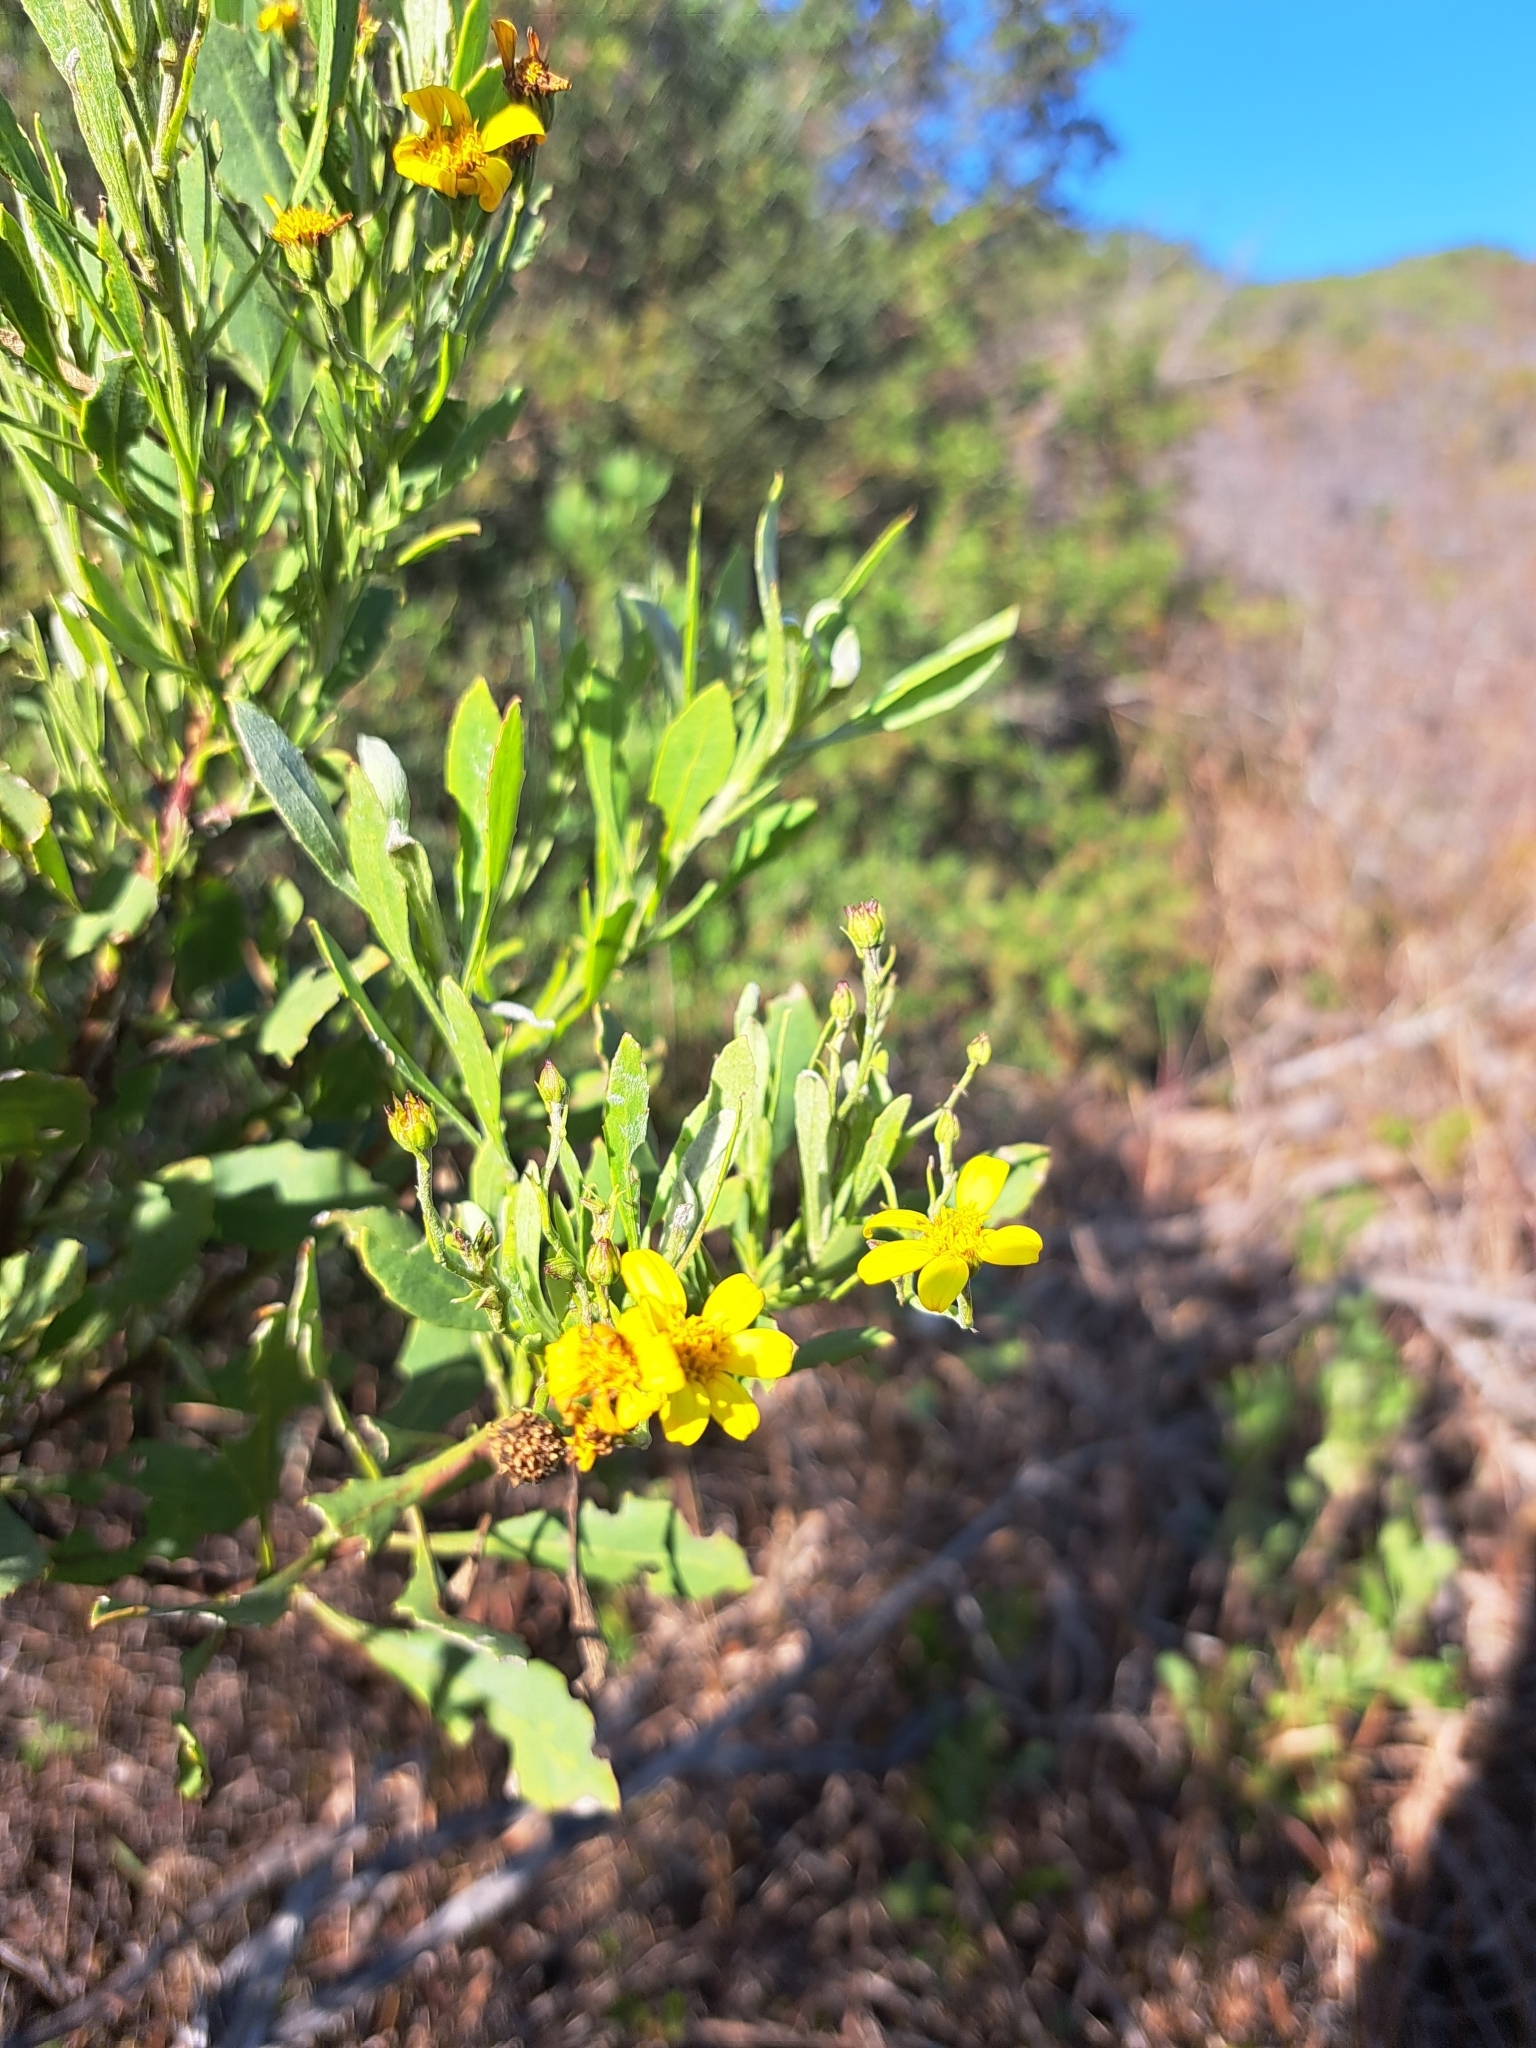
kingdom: Plantae
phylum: Tracheophyta
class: Magnoliopsida
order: Asterales
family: Asteraceae
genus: Osteospermum
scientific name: Osteospermum moniliferum
